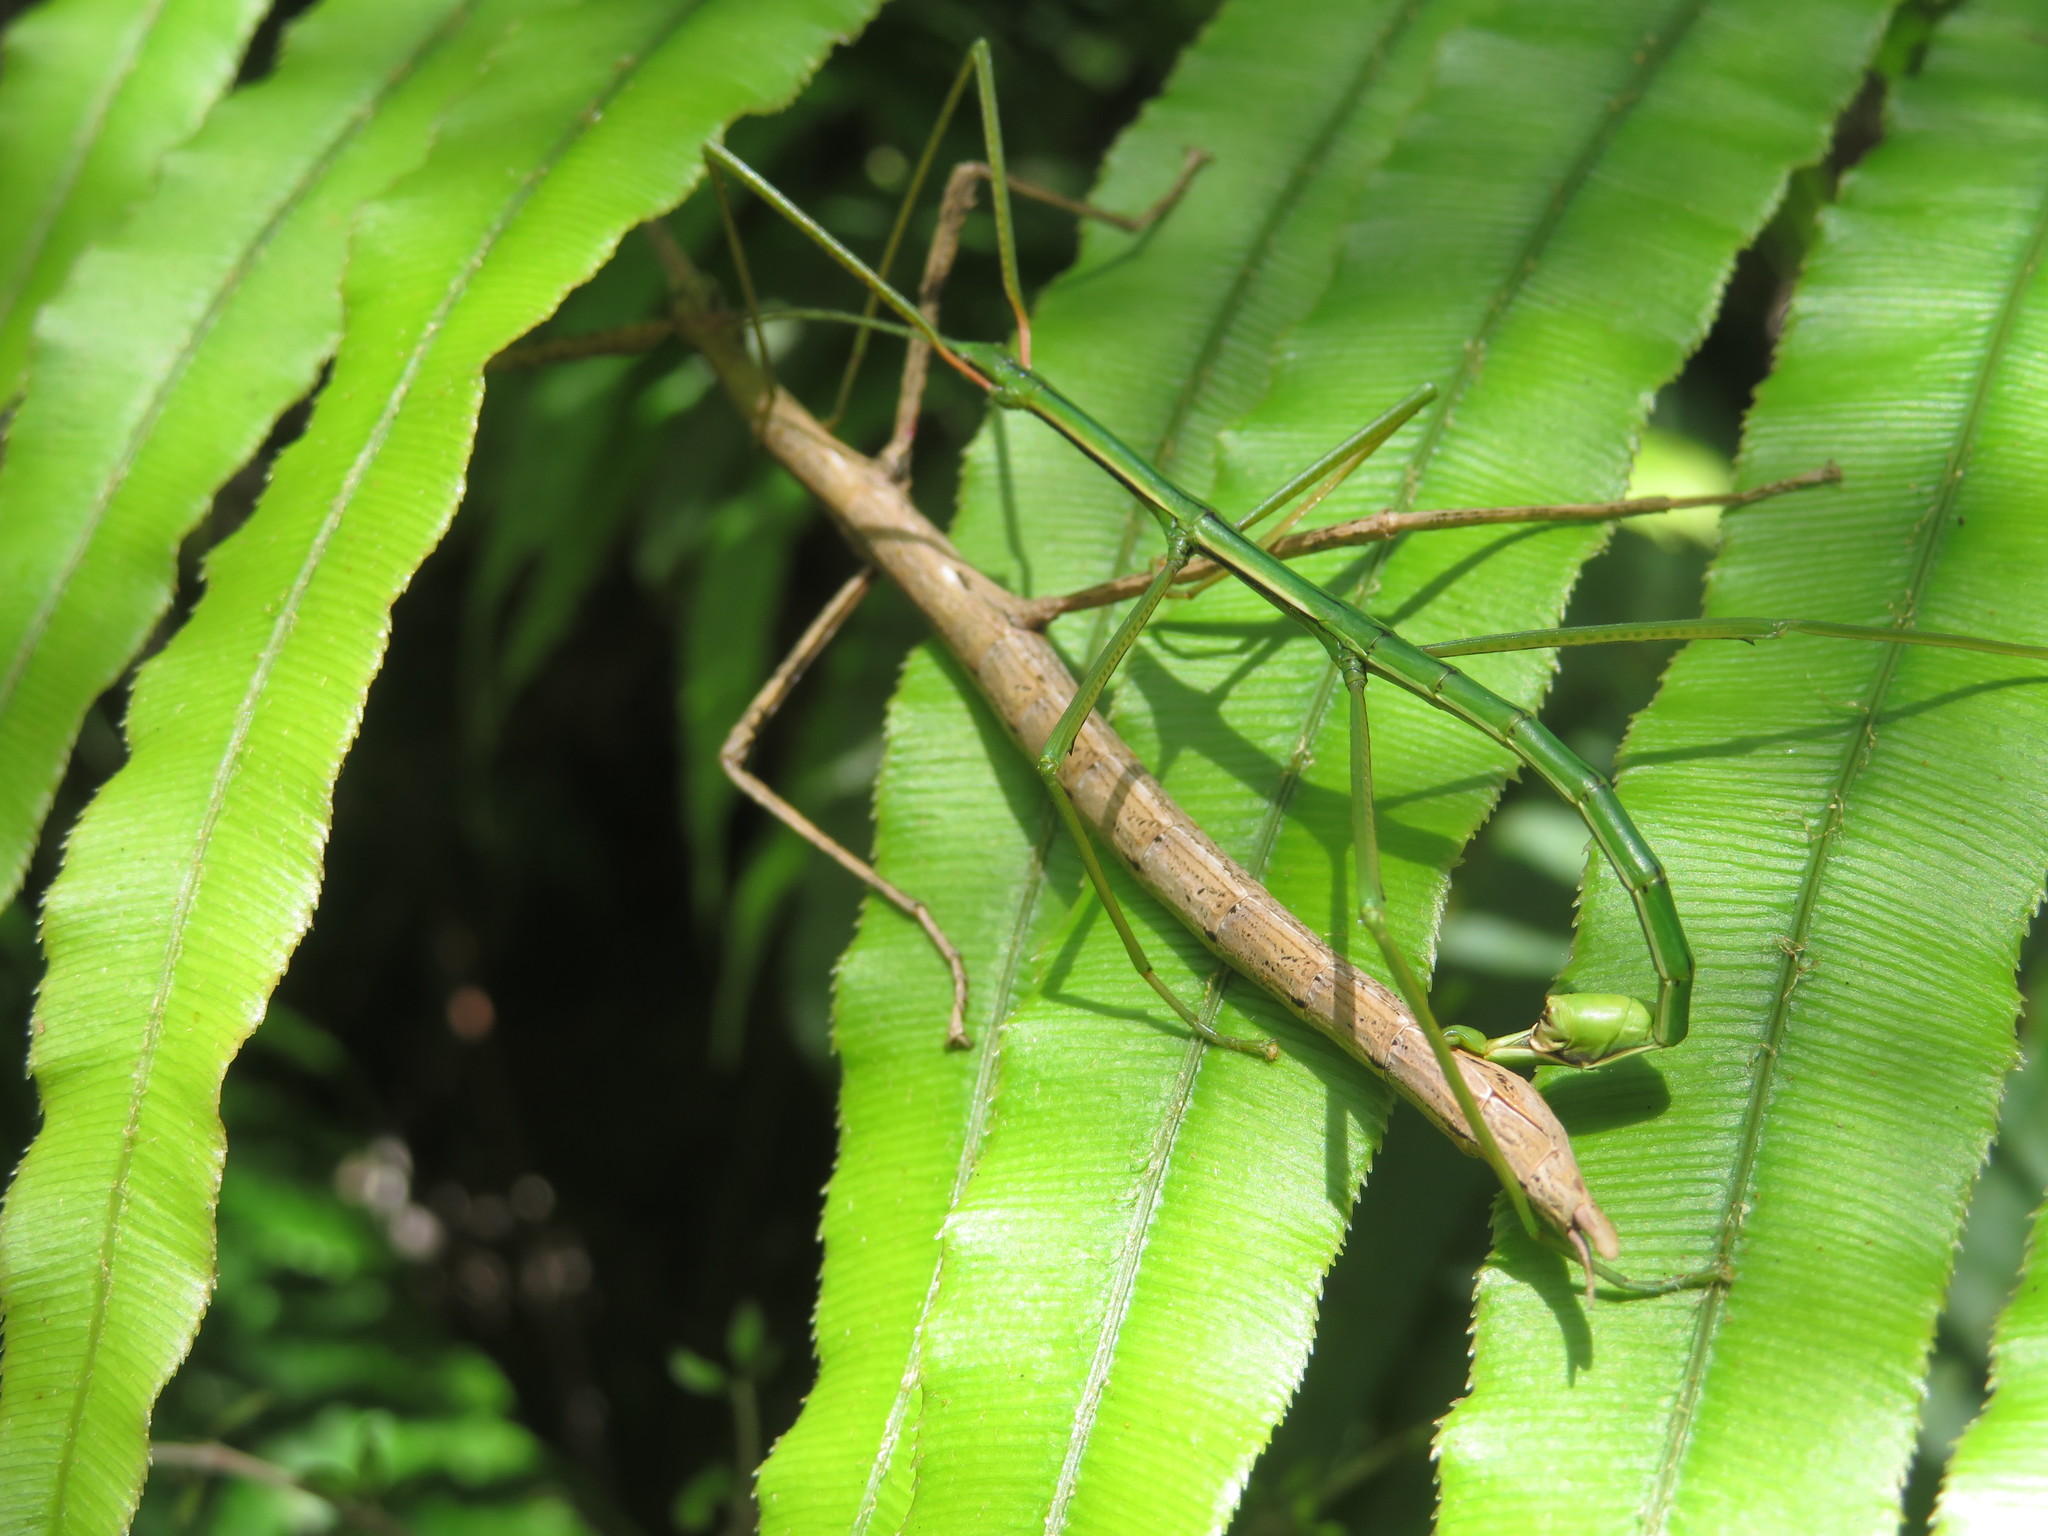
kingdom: Animalia
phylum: Arthropoda
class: Insecta
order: Phasmida
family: Phasmatidae
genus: Clitarchus
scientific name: Clitarchus hookeri
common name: Smooth stick insect
